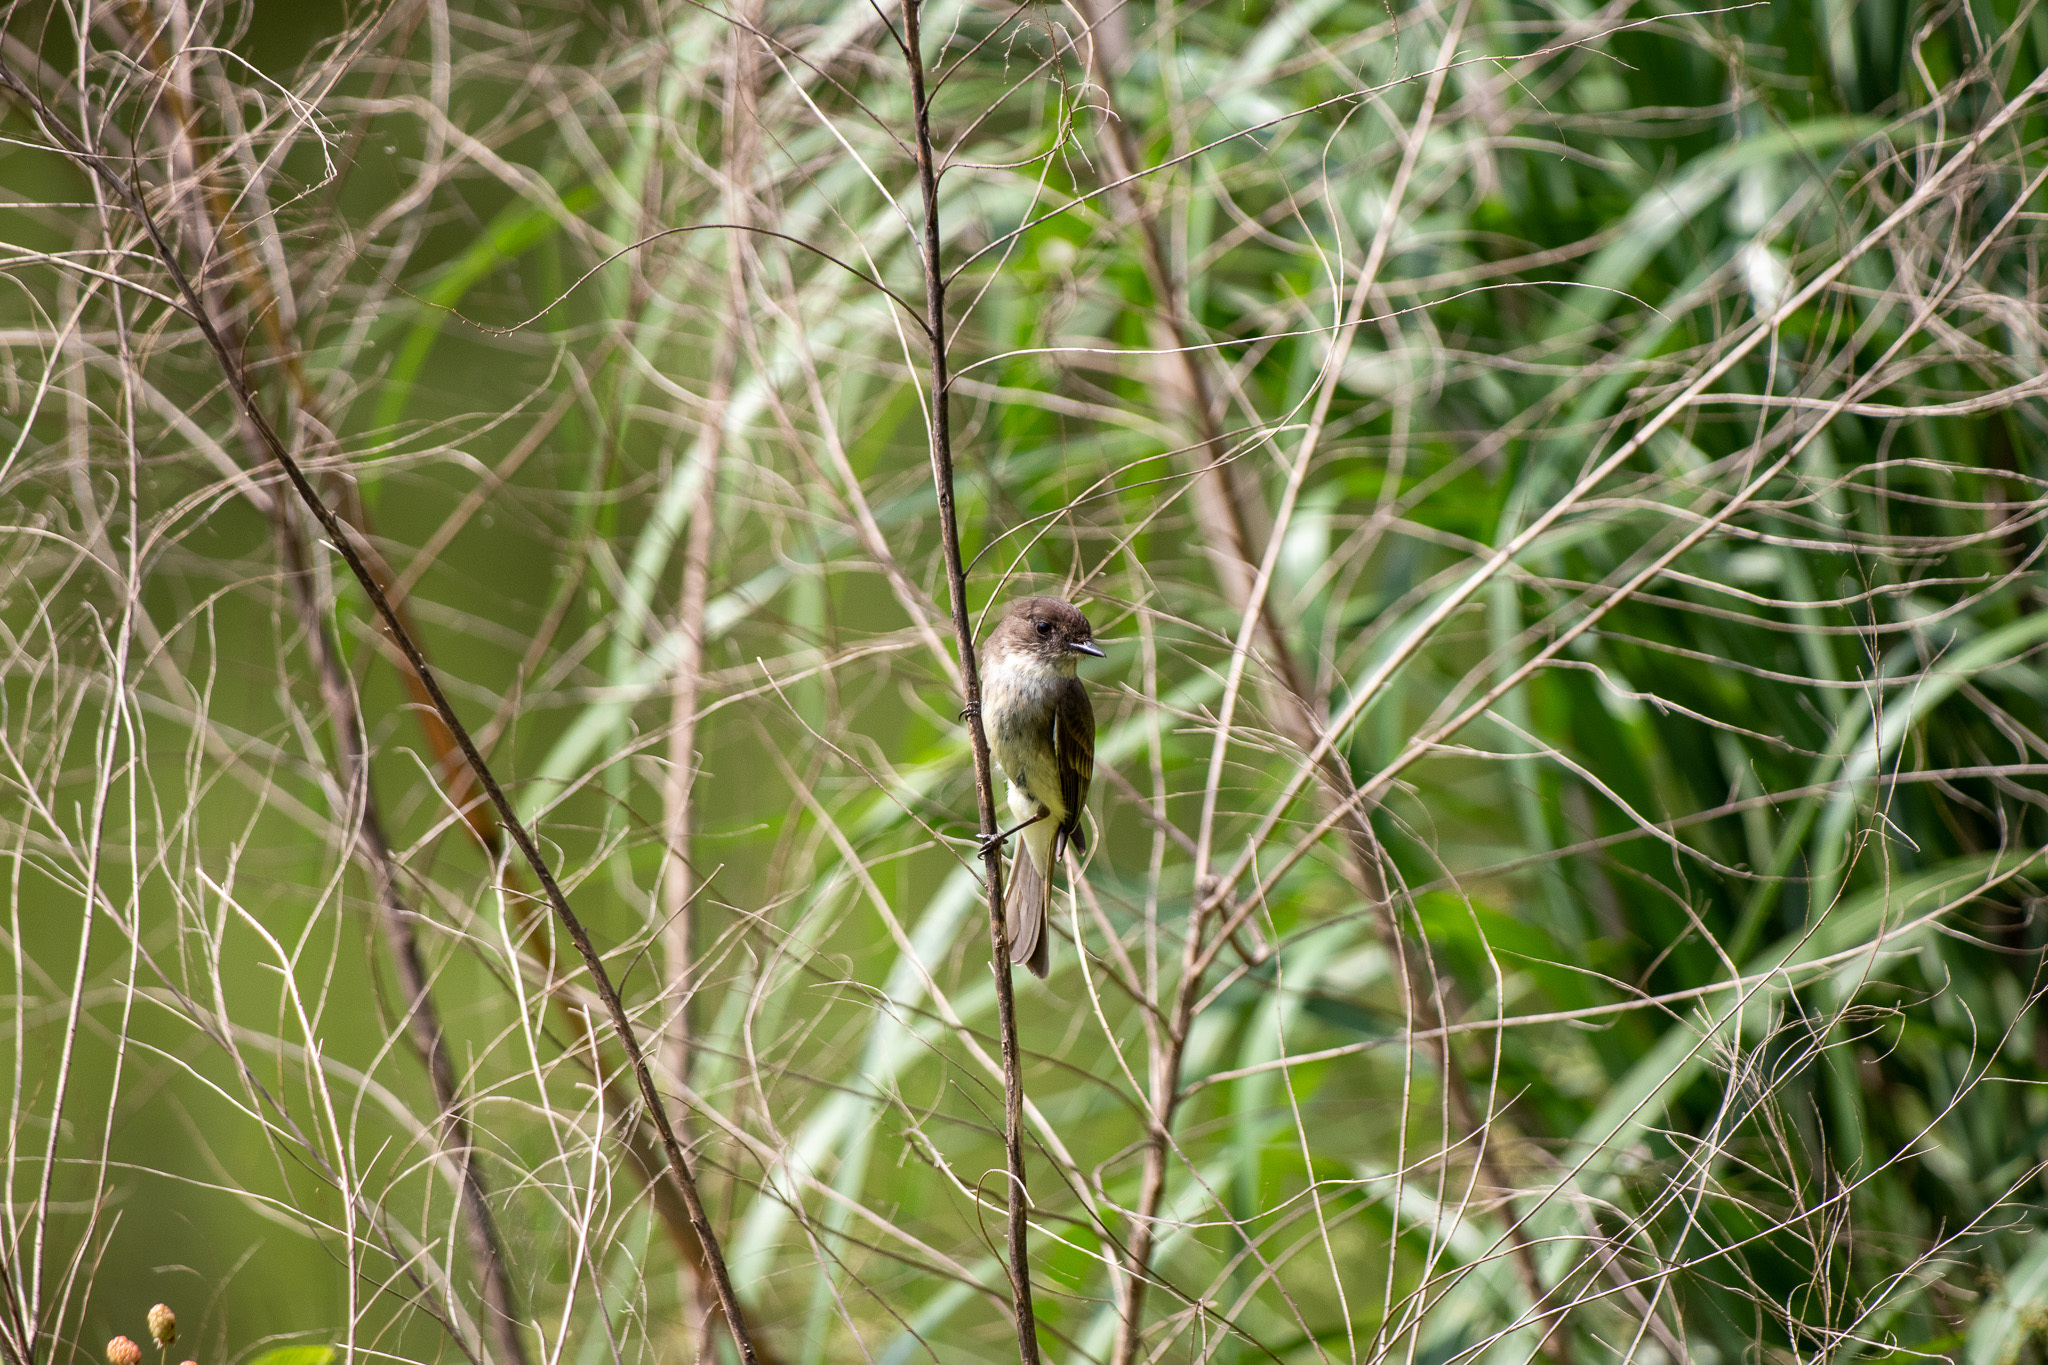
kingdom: Animalia
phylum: Chordata
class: Aves
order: Passeriformes
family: Tyrannidae
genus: Sayornis
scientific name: Sayornis phoebe
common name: Eastern phoebe
